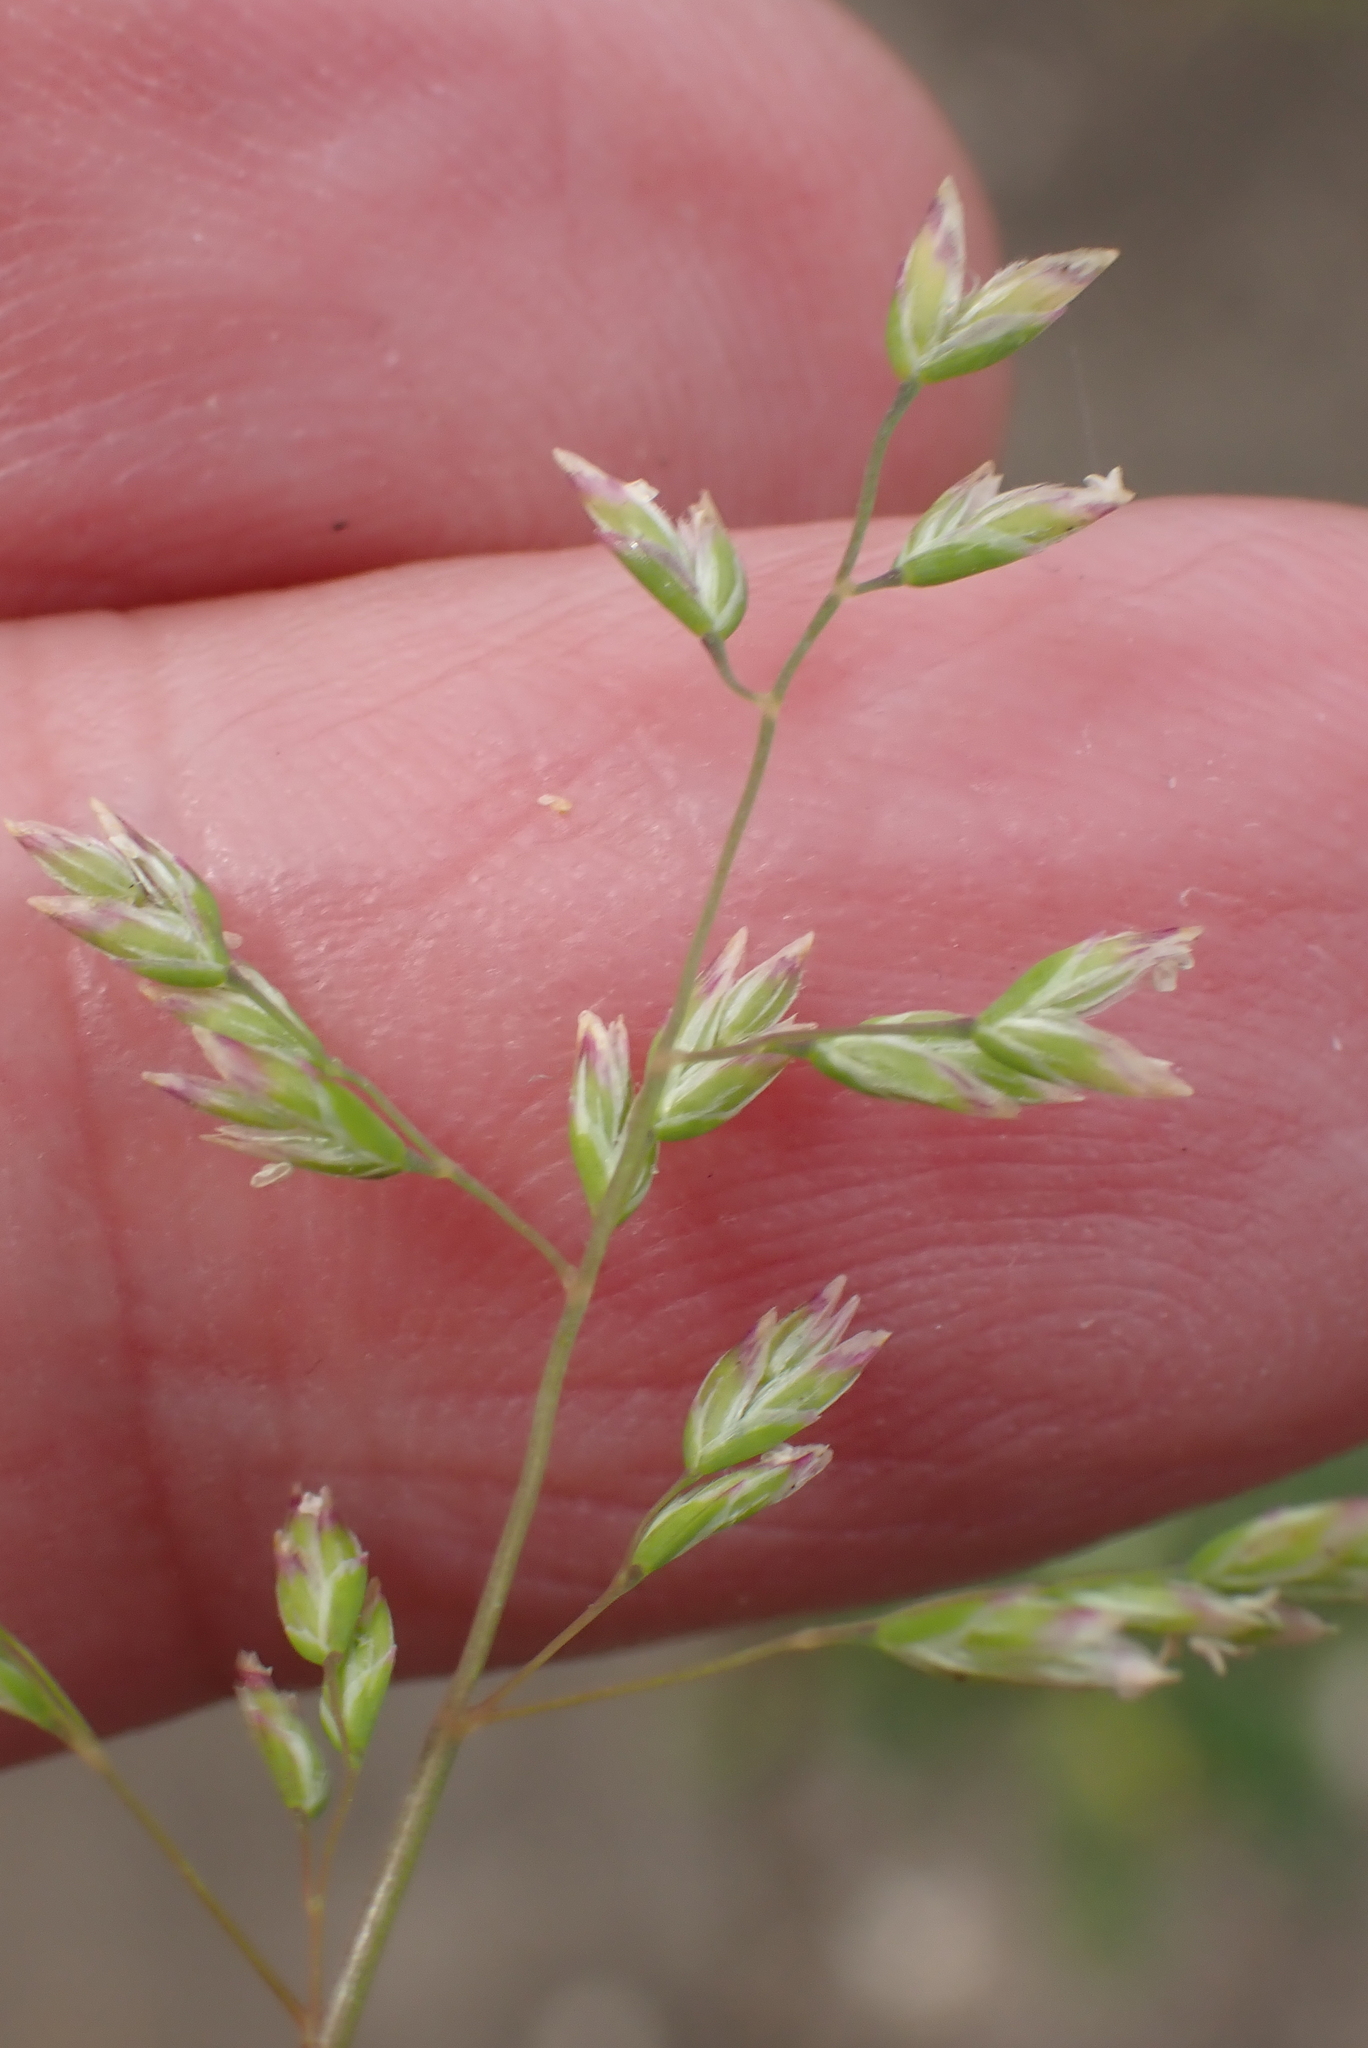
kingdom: Plantae
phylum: Tracheophyta
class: Liliopsida
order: Poales
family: Poaceae
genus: Poa
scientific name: Poa annua
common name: Annual bluegrass
